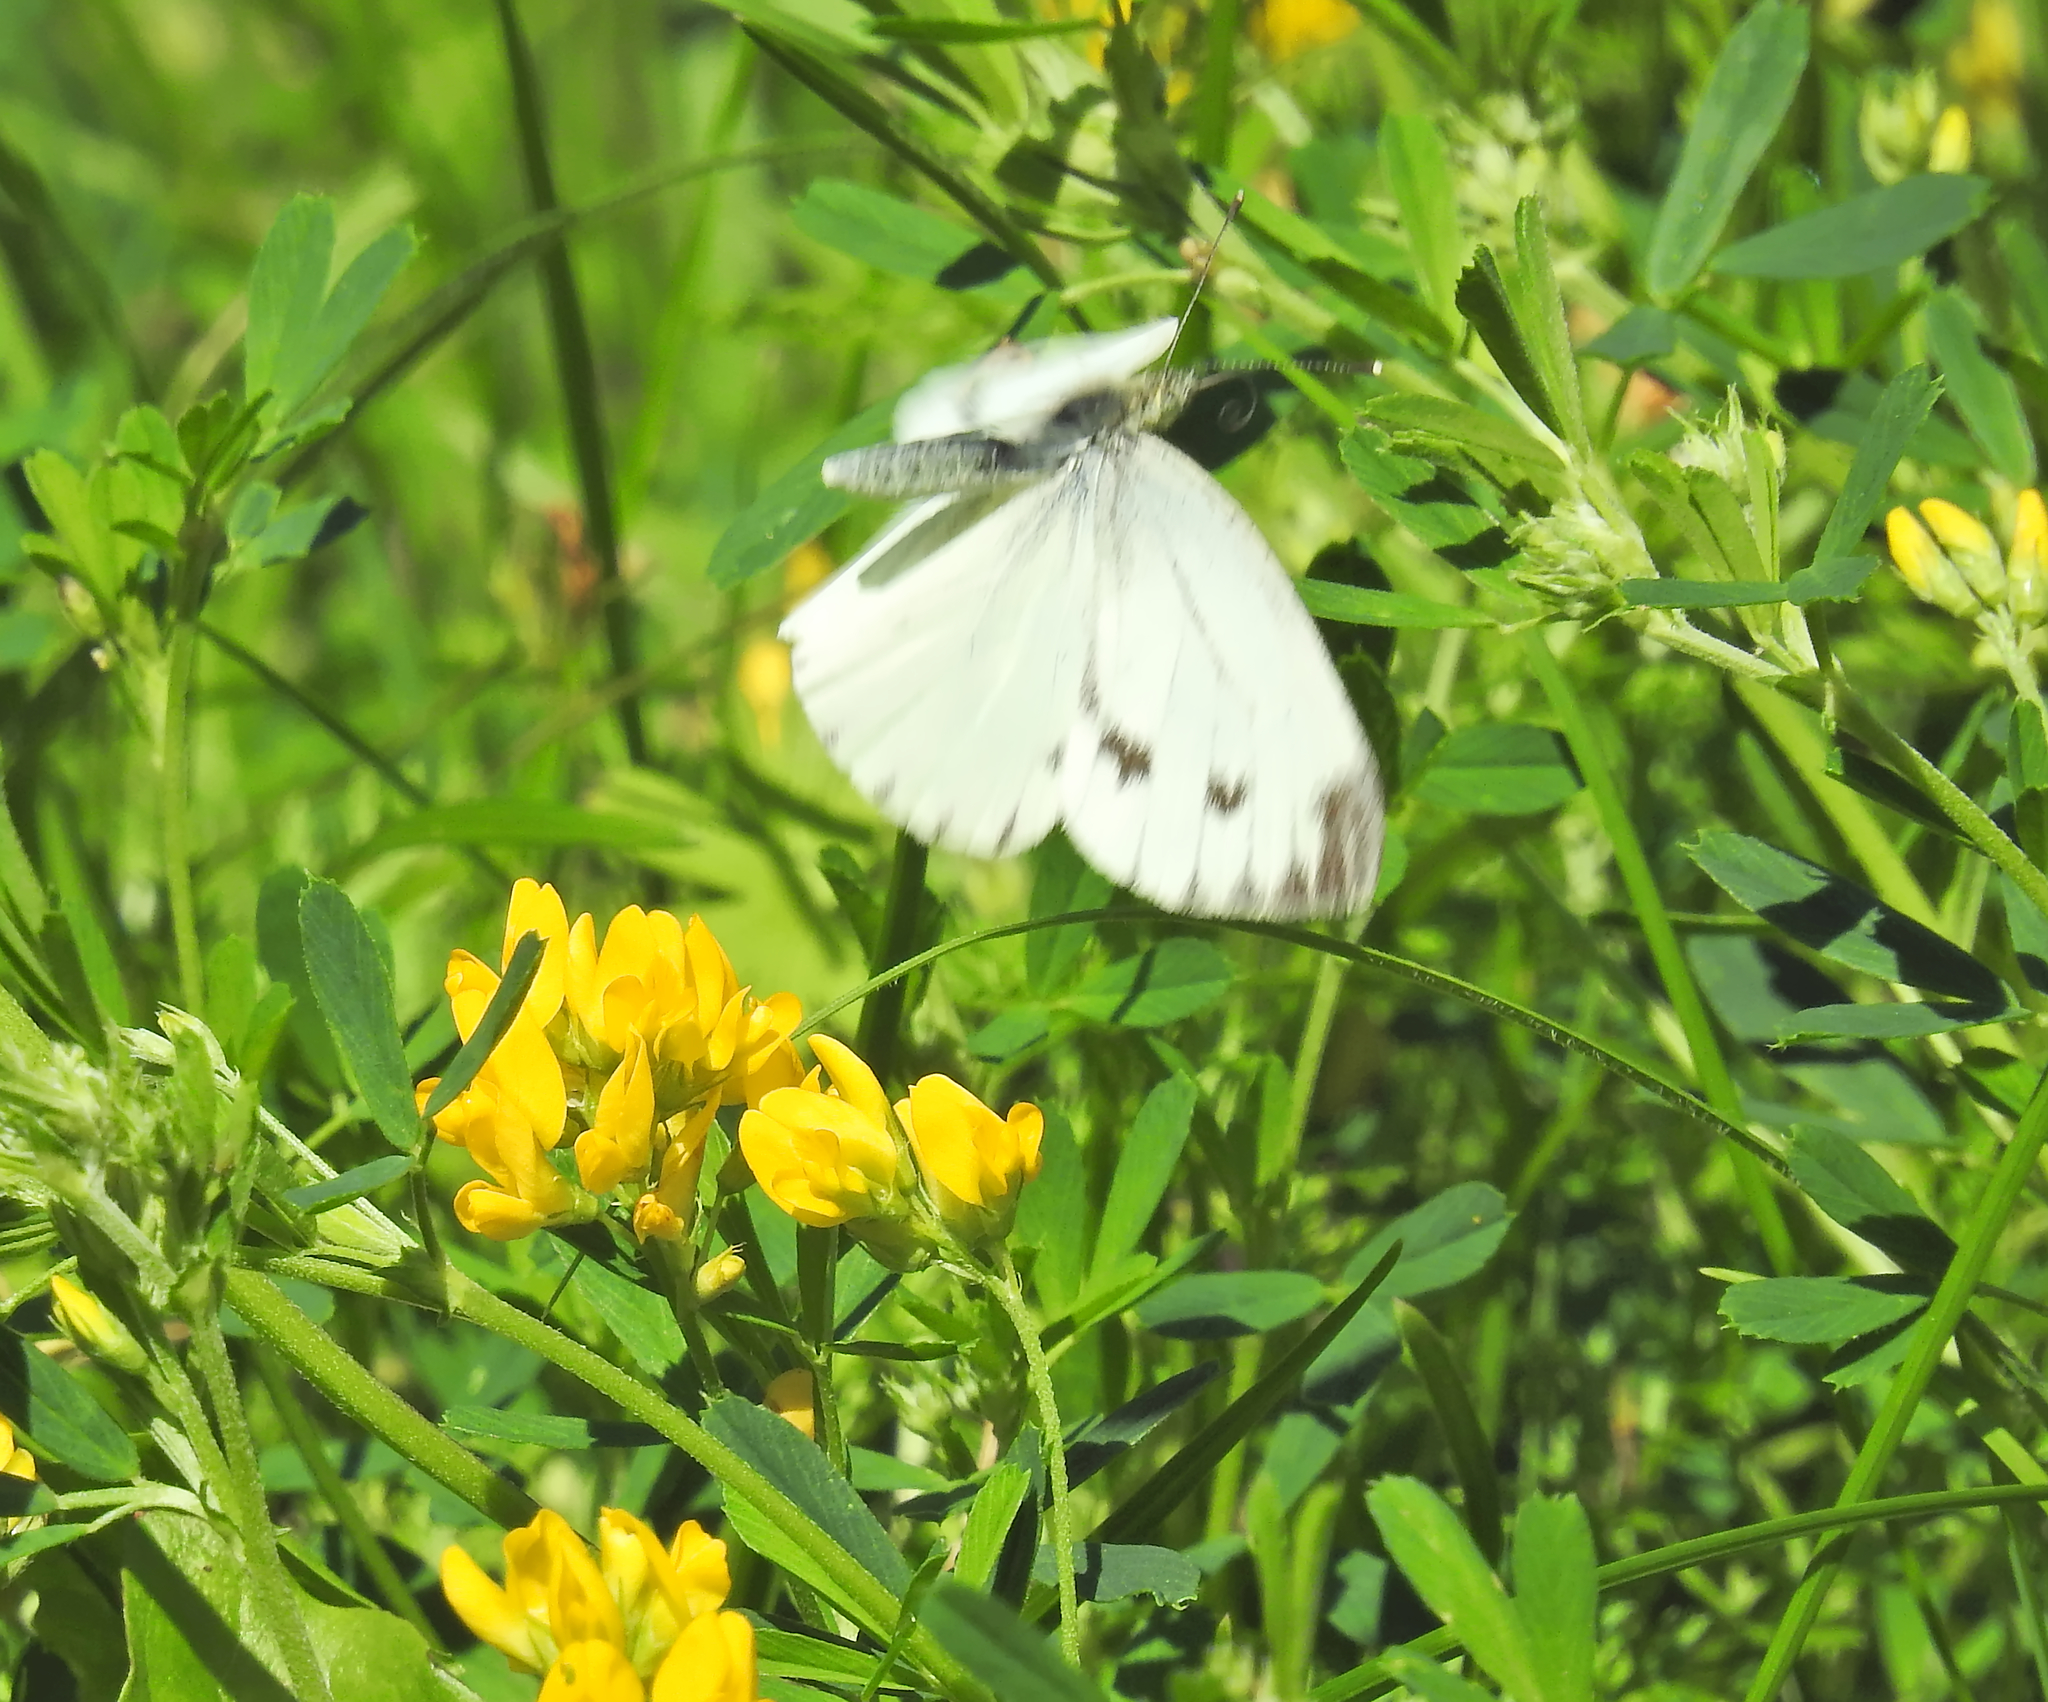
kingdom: Animalia
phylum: Arthropoda
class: Insecta
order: Lepidoptera
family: Pieridae
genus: Pieris
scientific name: Pieris napi
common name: Green-veined white
